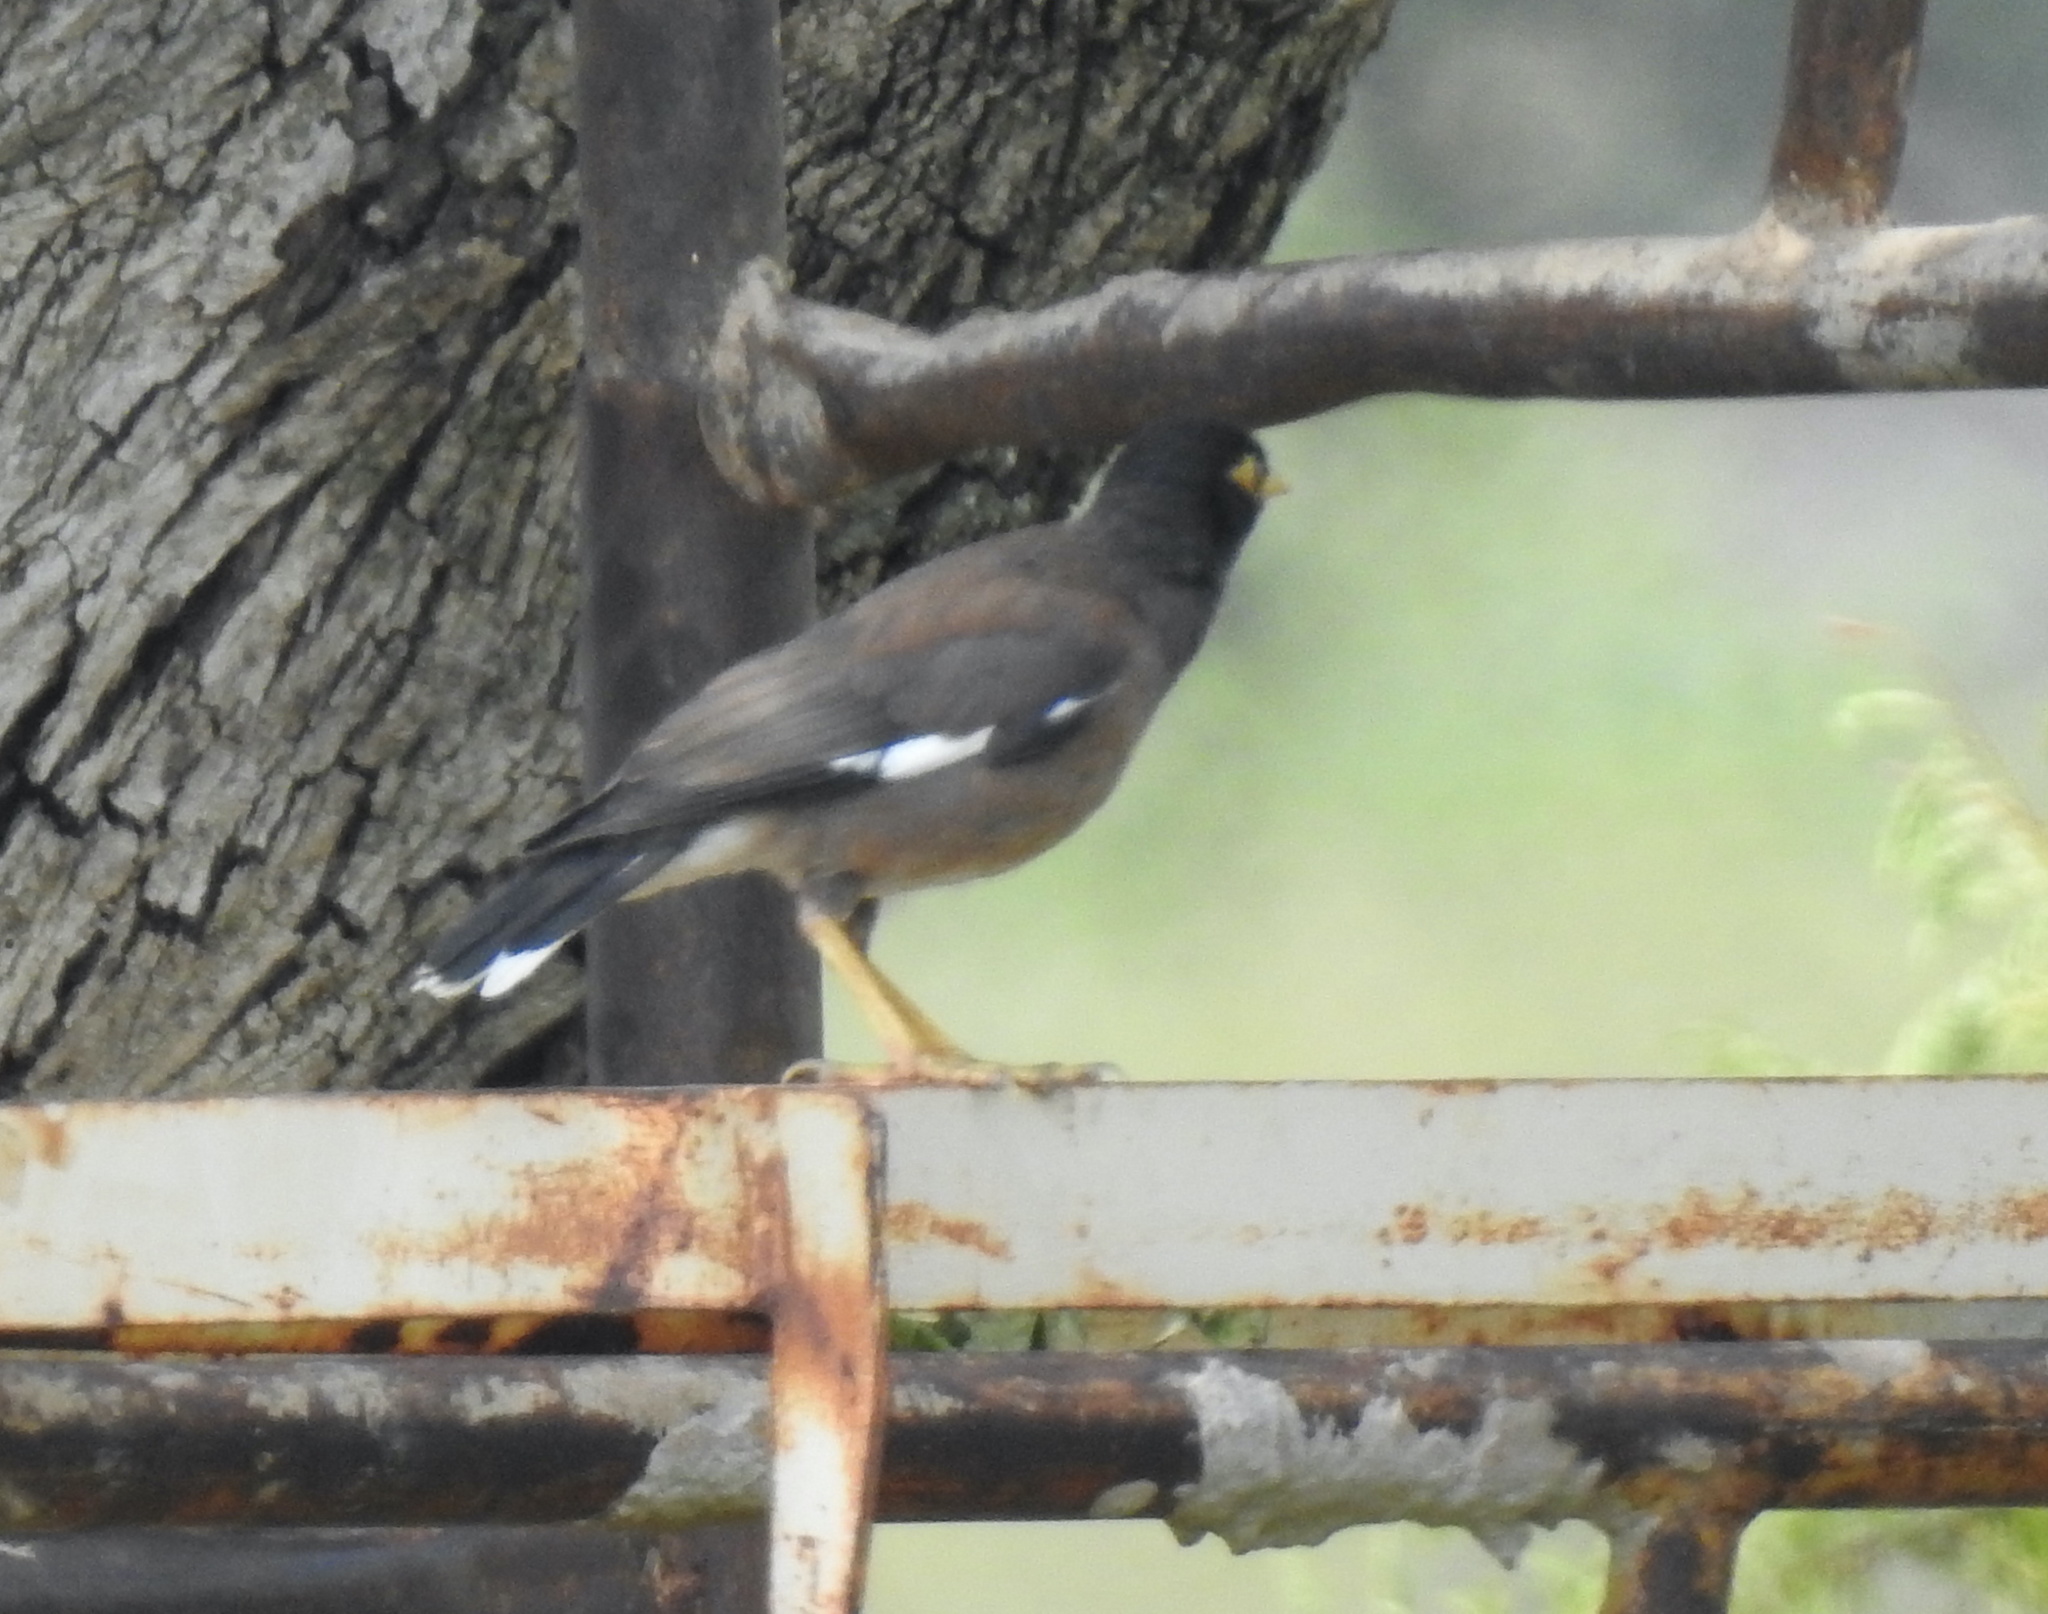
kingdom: Animalia
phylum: Chordata
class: Aves
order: Passeriformes
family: Sturnidae
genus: Acridotheres
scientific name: Acridotheres tristis
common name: Common myna
